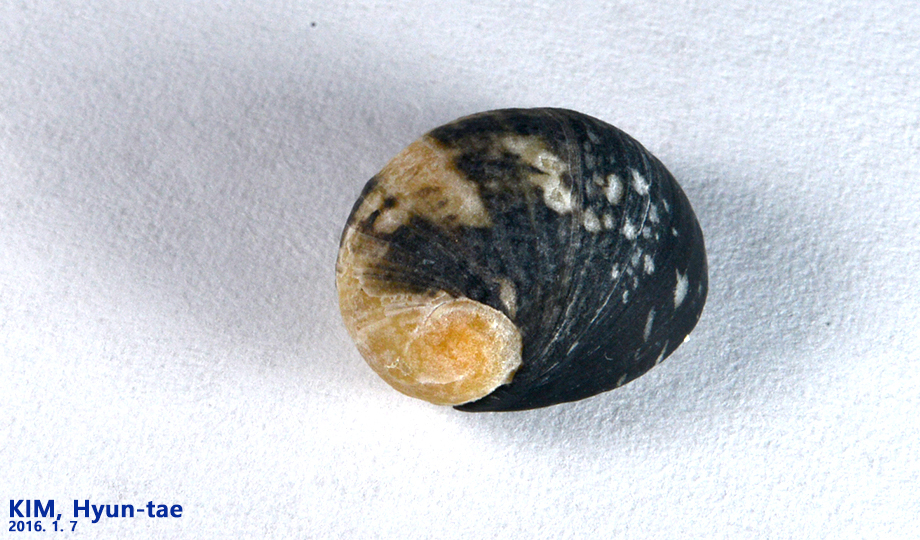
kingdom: Animalia
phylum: Mollusca
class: Gastropoda
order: Cycloneritida
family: Neritidae
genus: Nerita
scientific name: Nerita japonica
